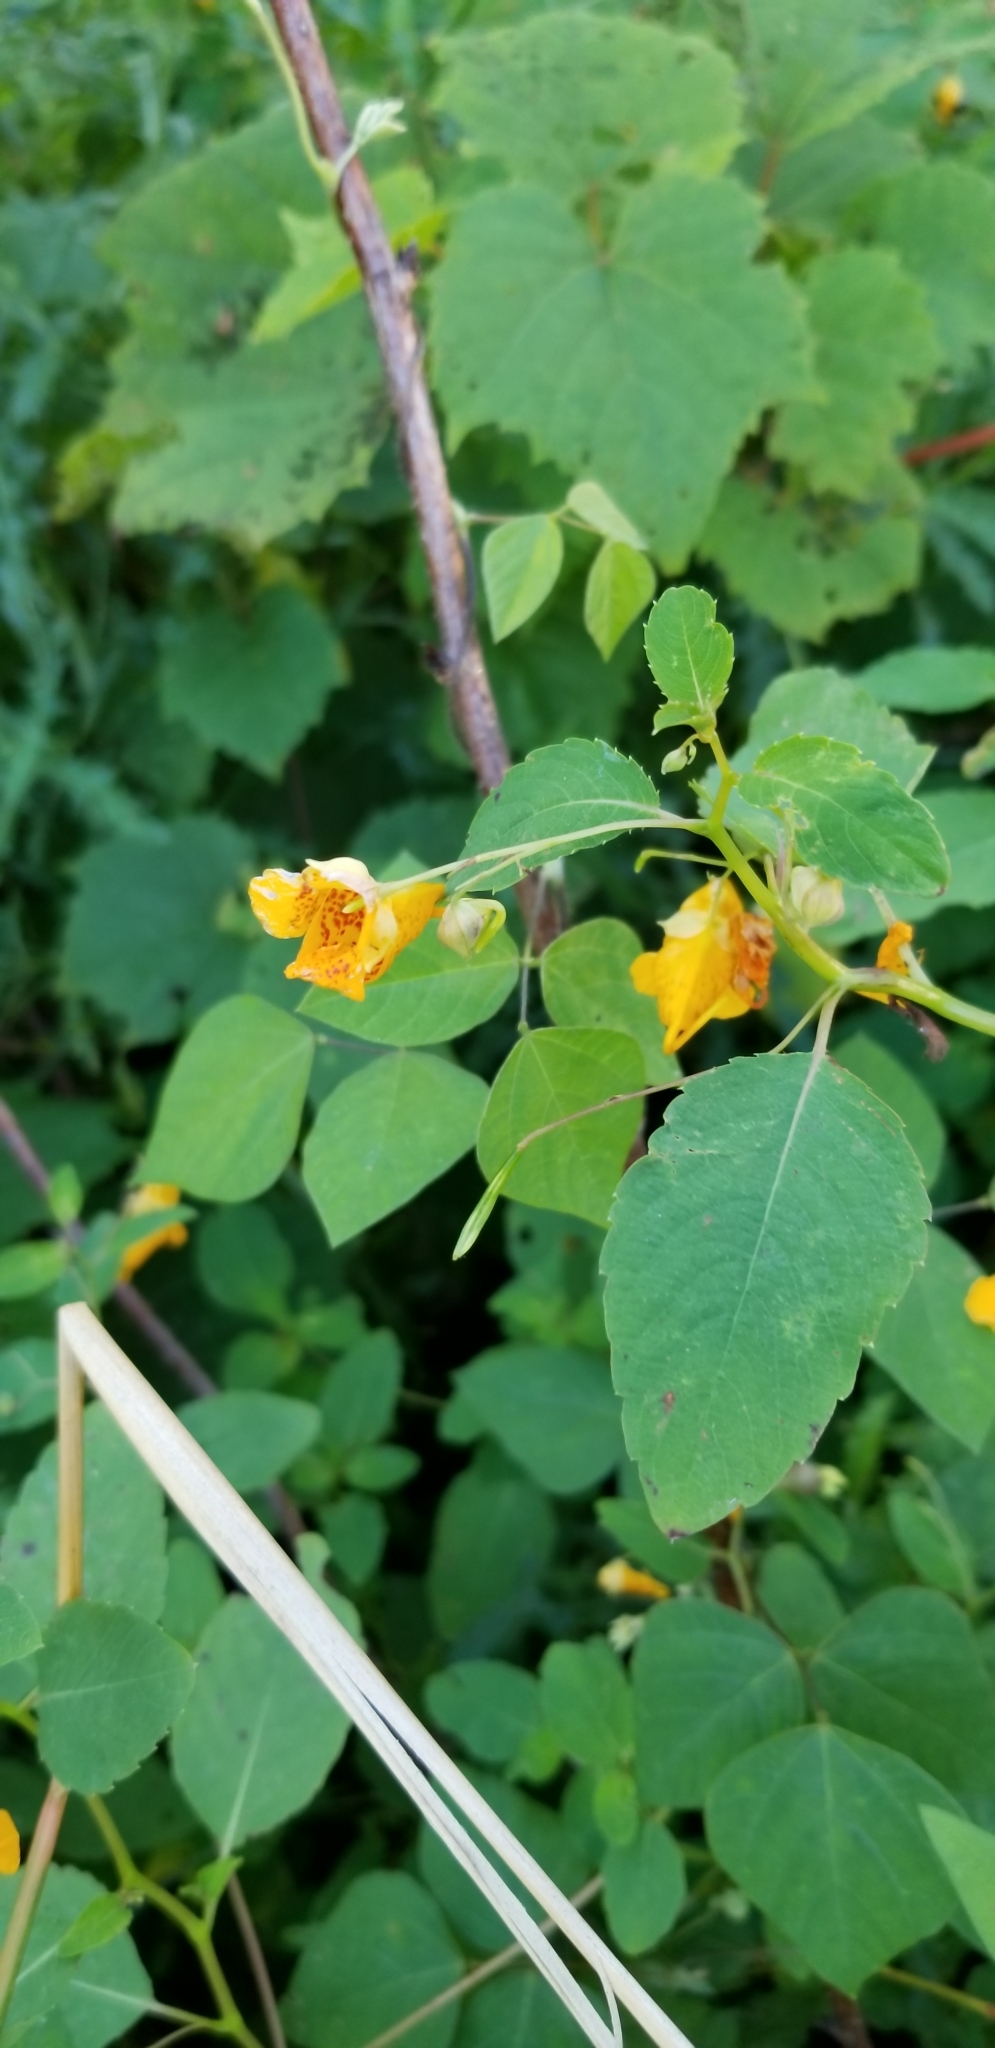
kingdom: Plantae
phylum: Tracheophyta
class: Magnoliopsida
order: Ericales
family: Balsaminaceae
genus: Impatiens
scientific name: Impatiens capensis
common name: Orange balsam
